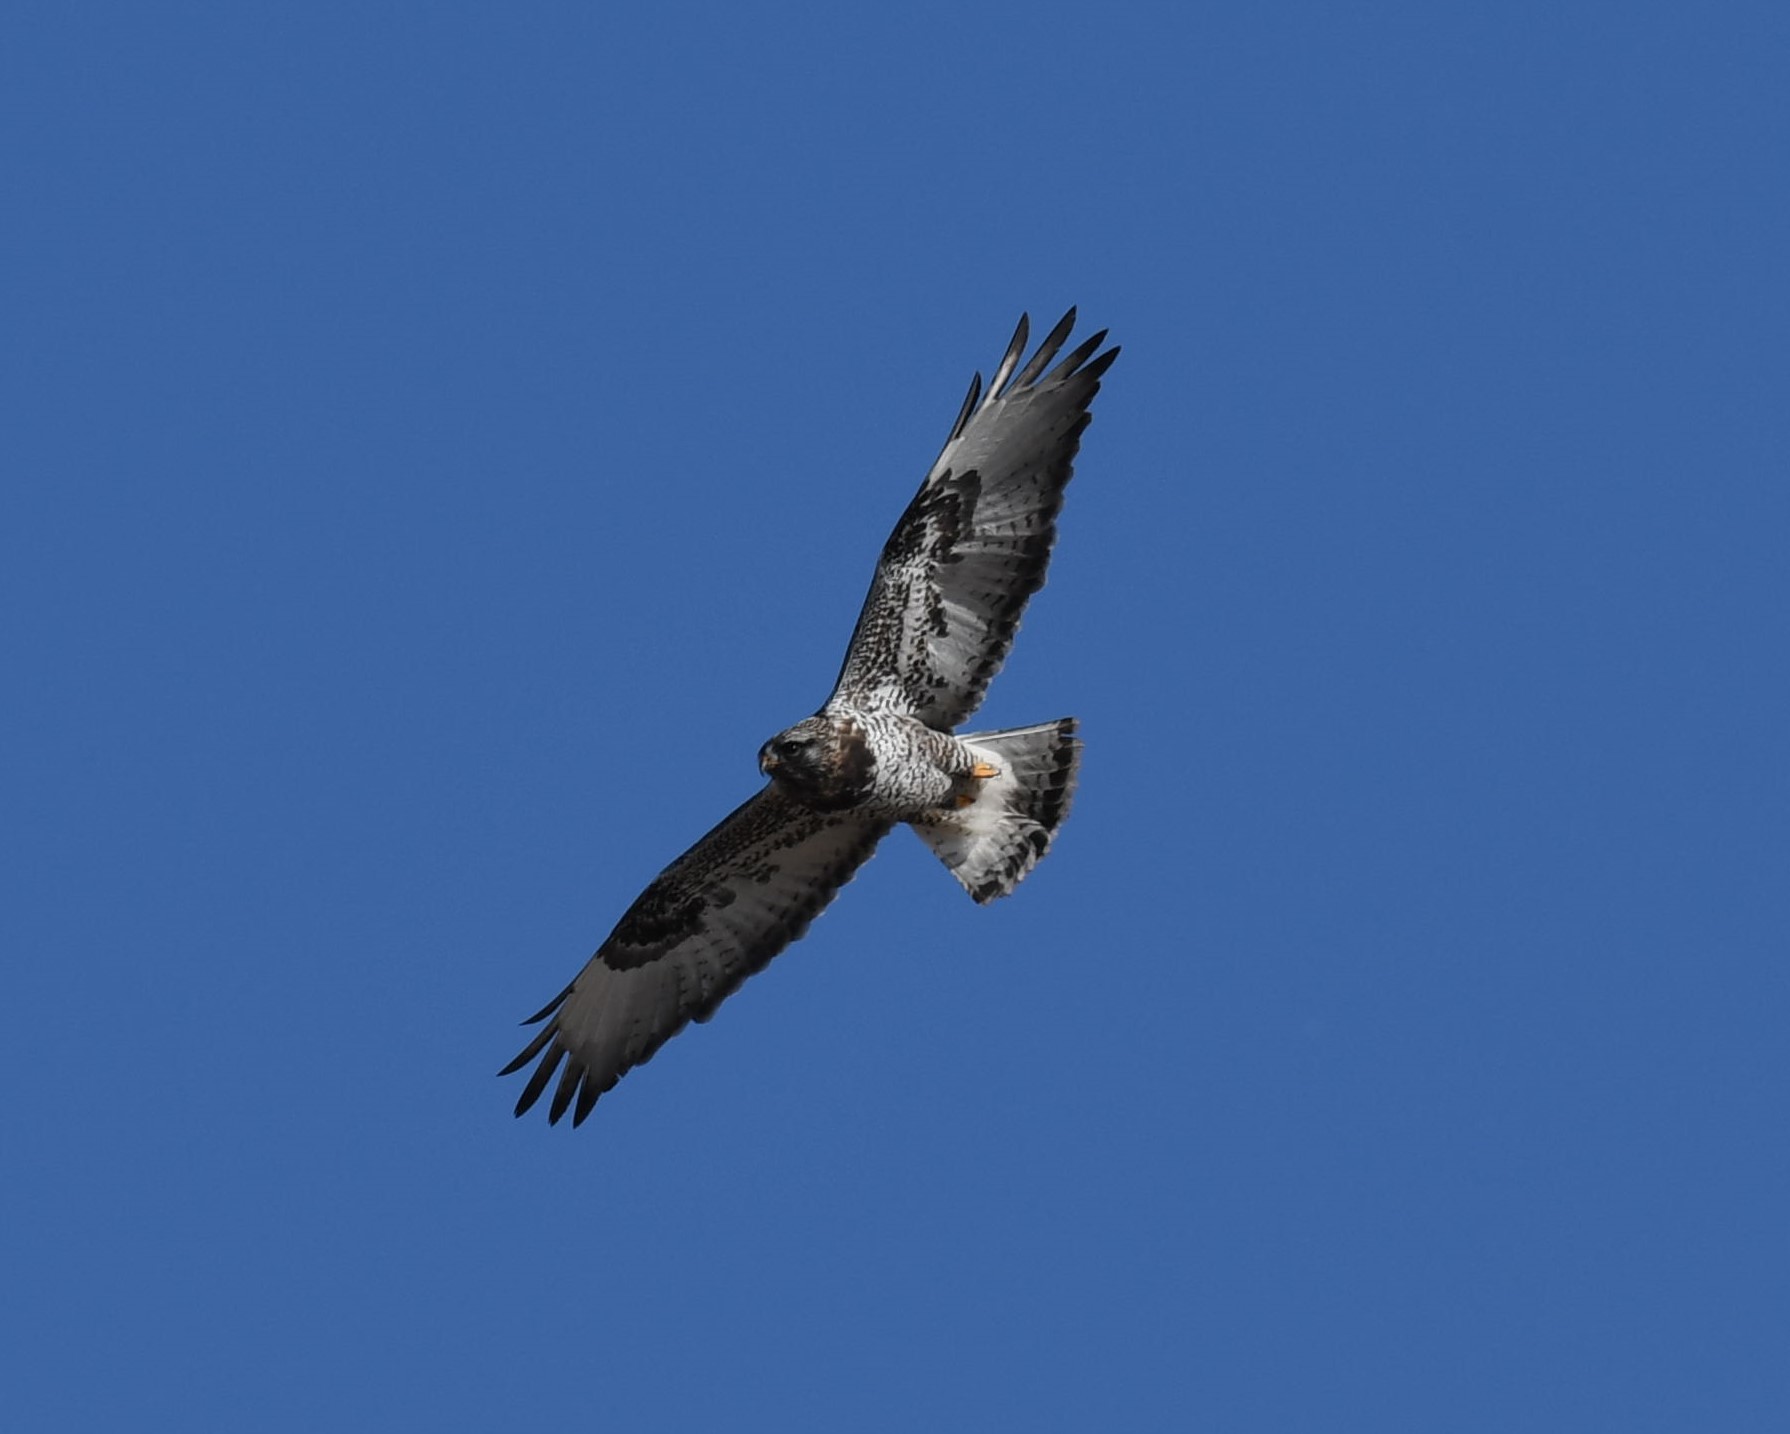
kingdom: Animalia
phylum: Chordata
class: Aves
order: Accipitriformes
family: Accipitridae
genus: Buteo
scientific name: Buteo lagopus
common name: Rough-legged buzzard
